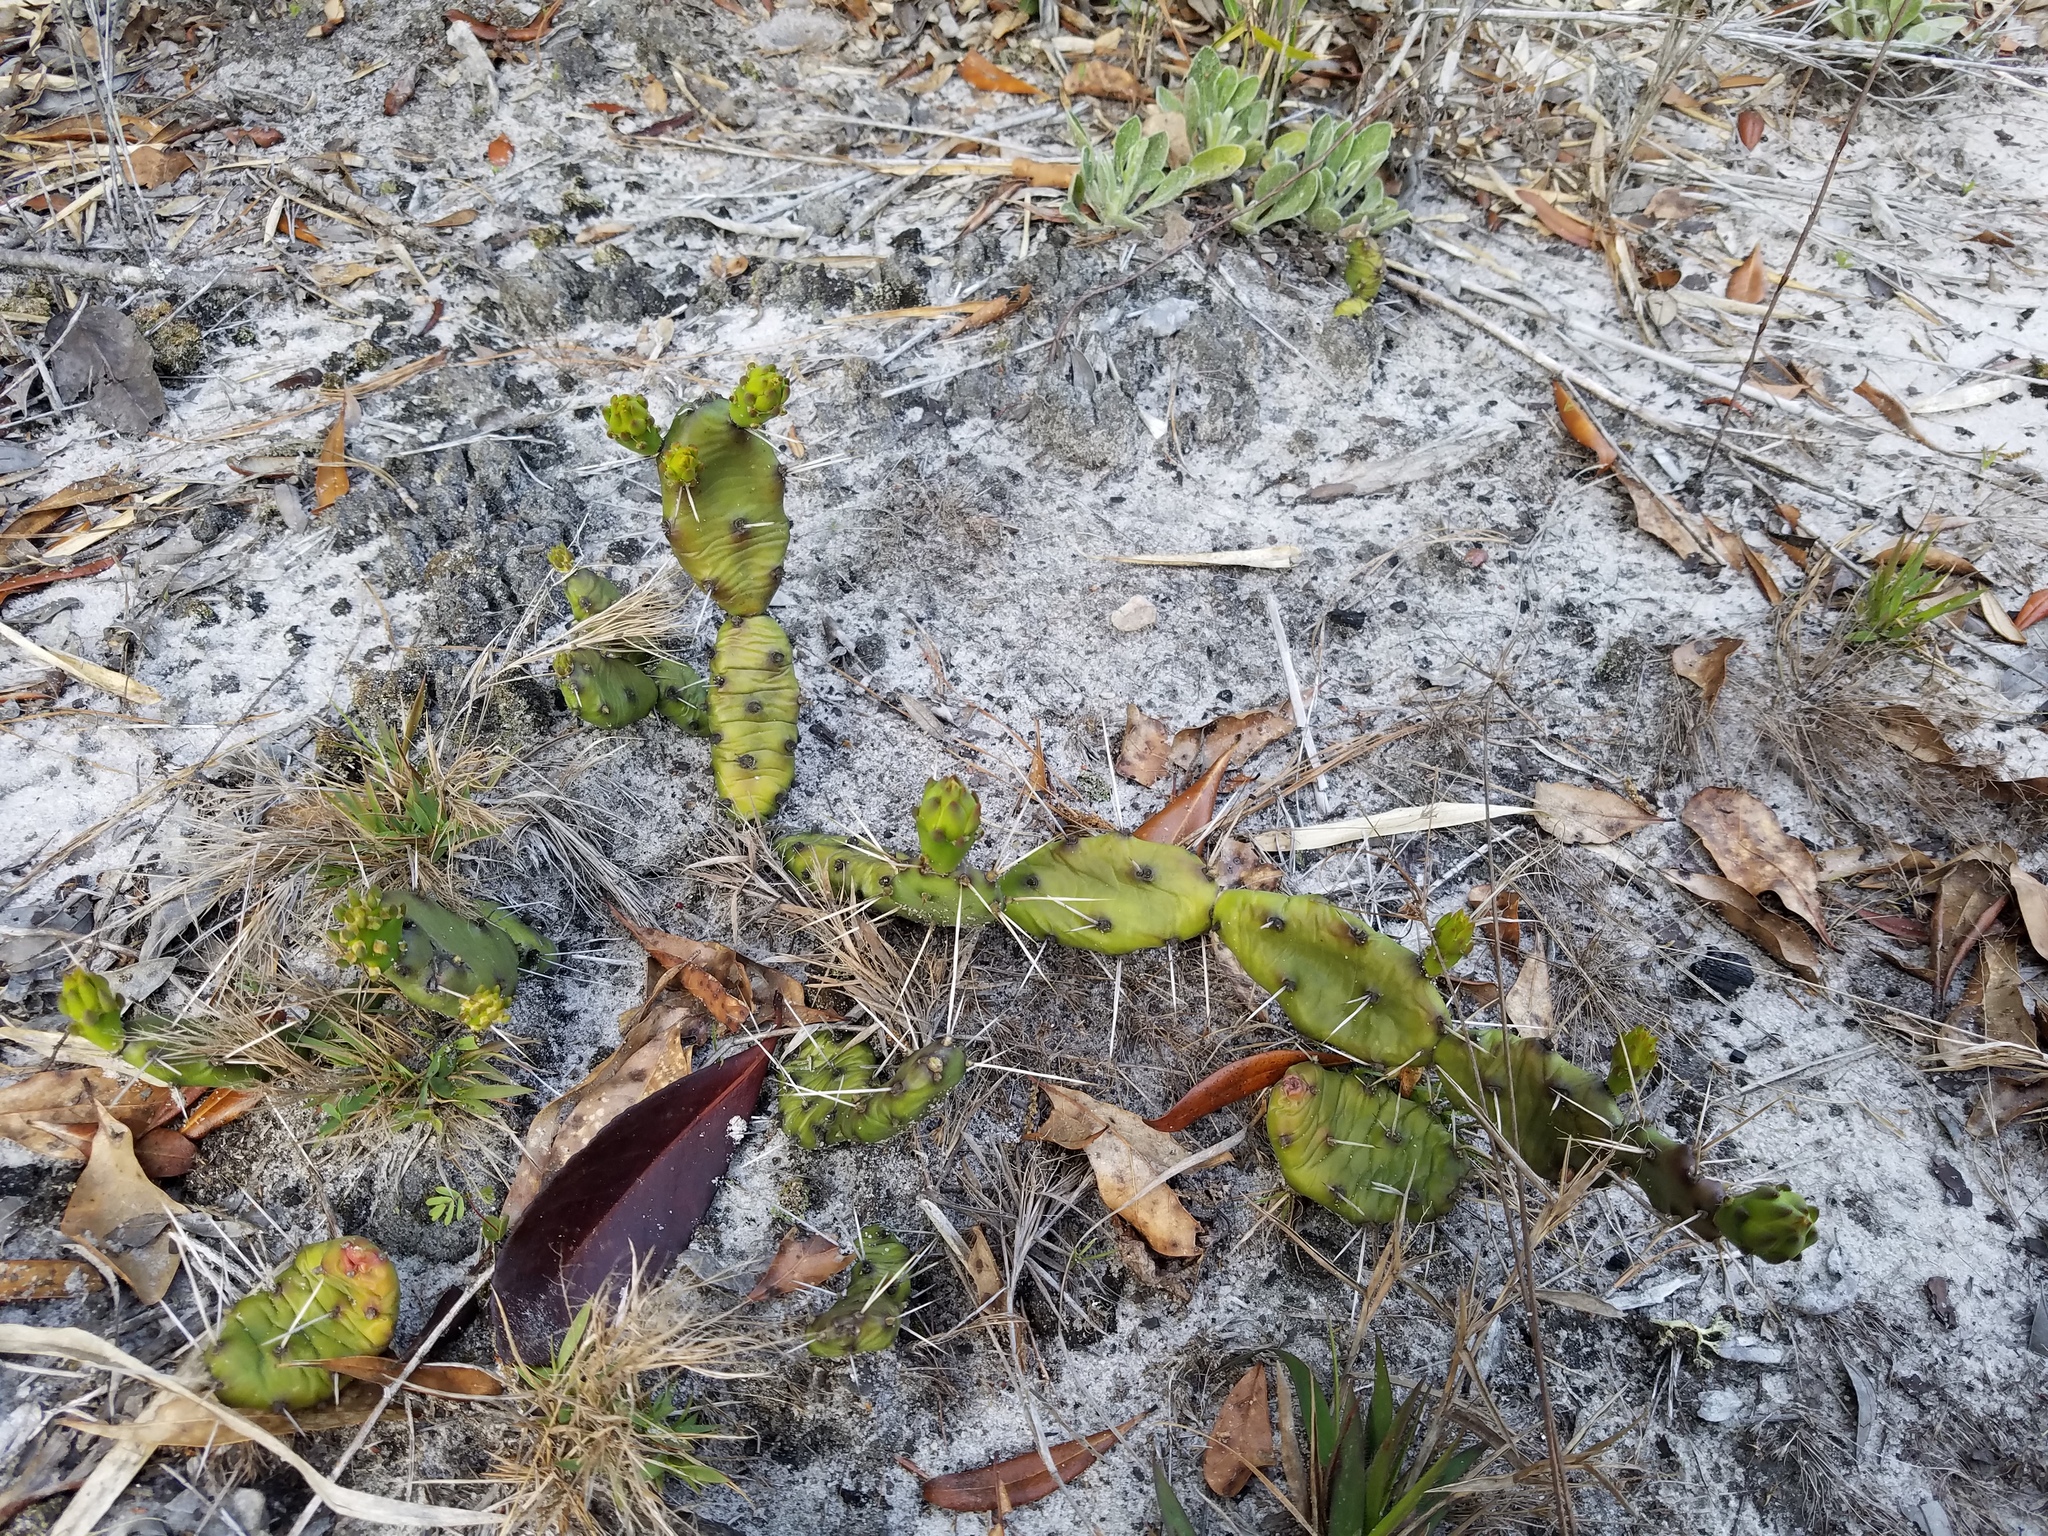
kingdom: Plantae
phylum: Tracheophyta
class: Magnoliopsida
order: Caryophyllales
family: Cactaceae
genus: Opuntia
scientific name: Opuntia drummondii
